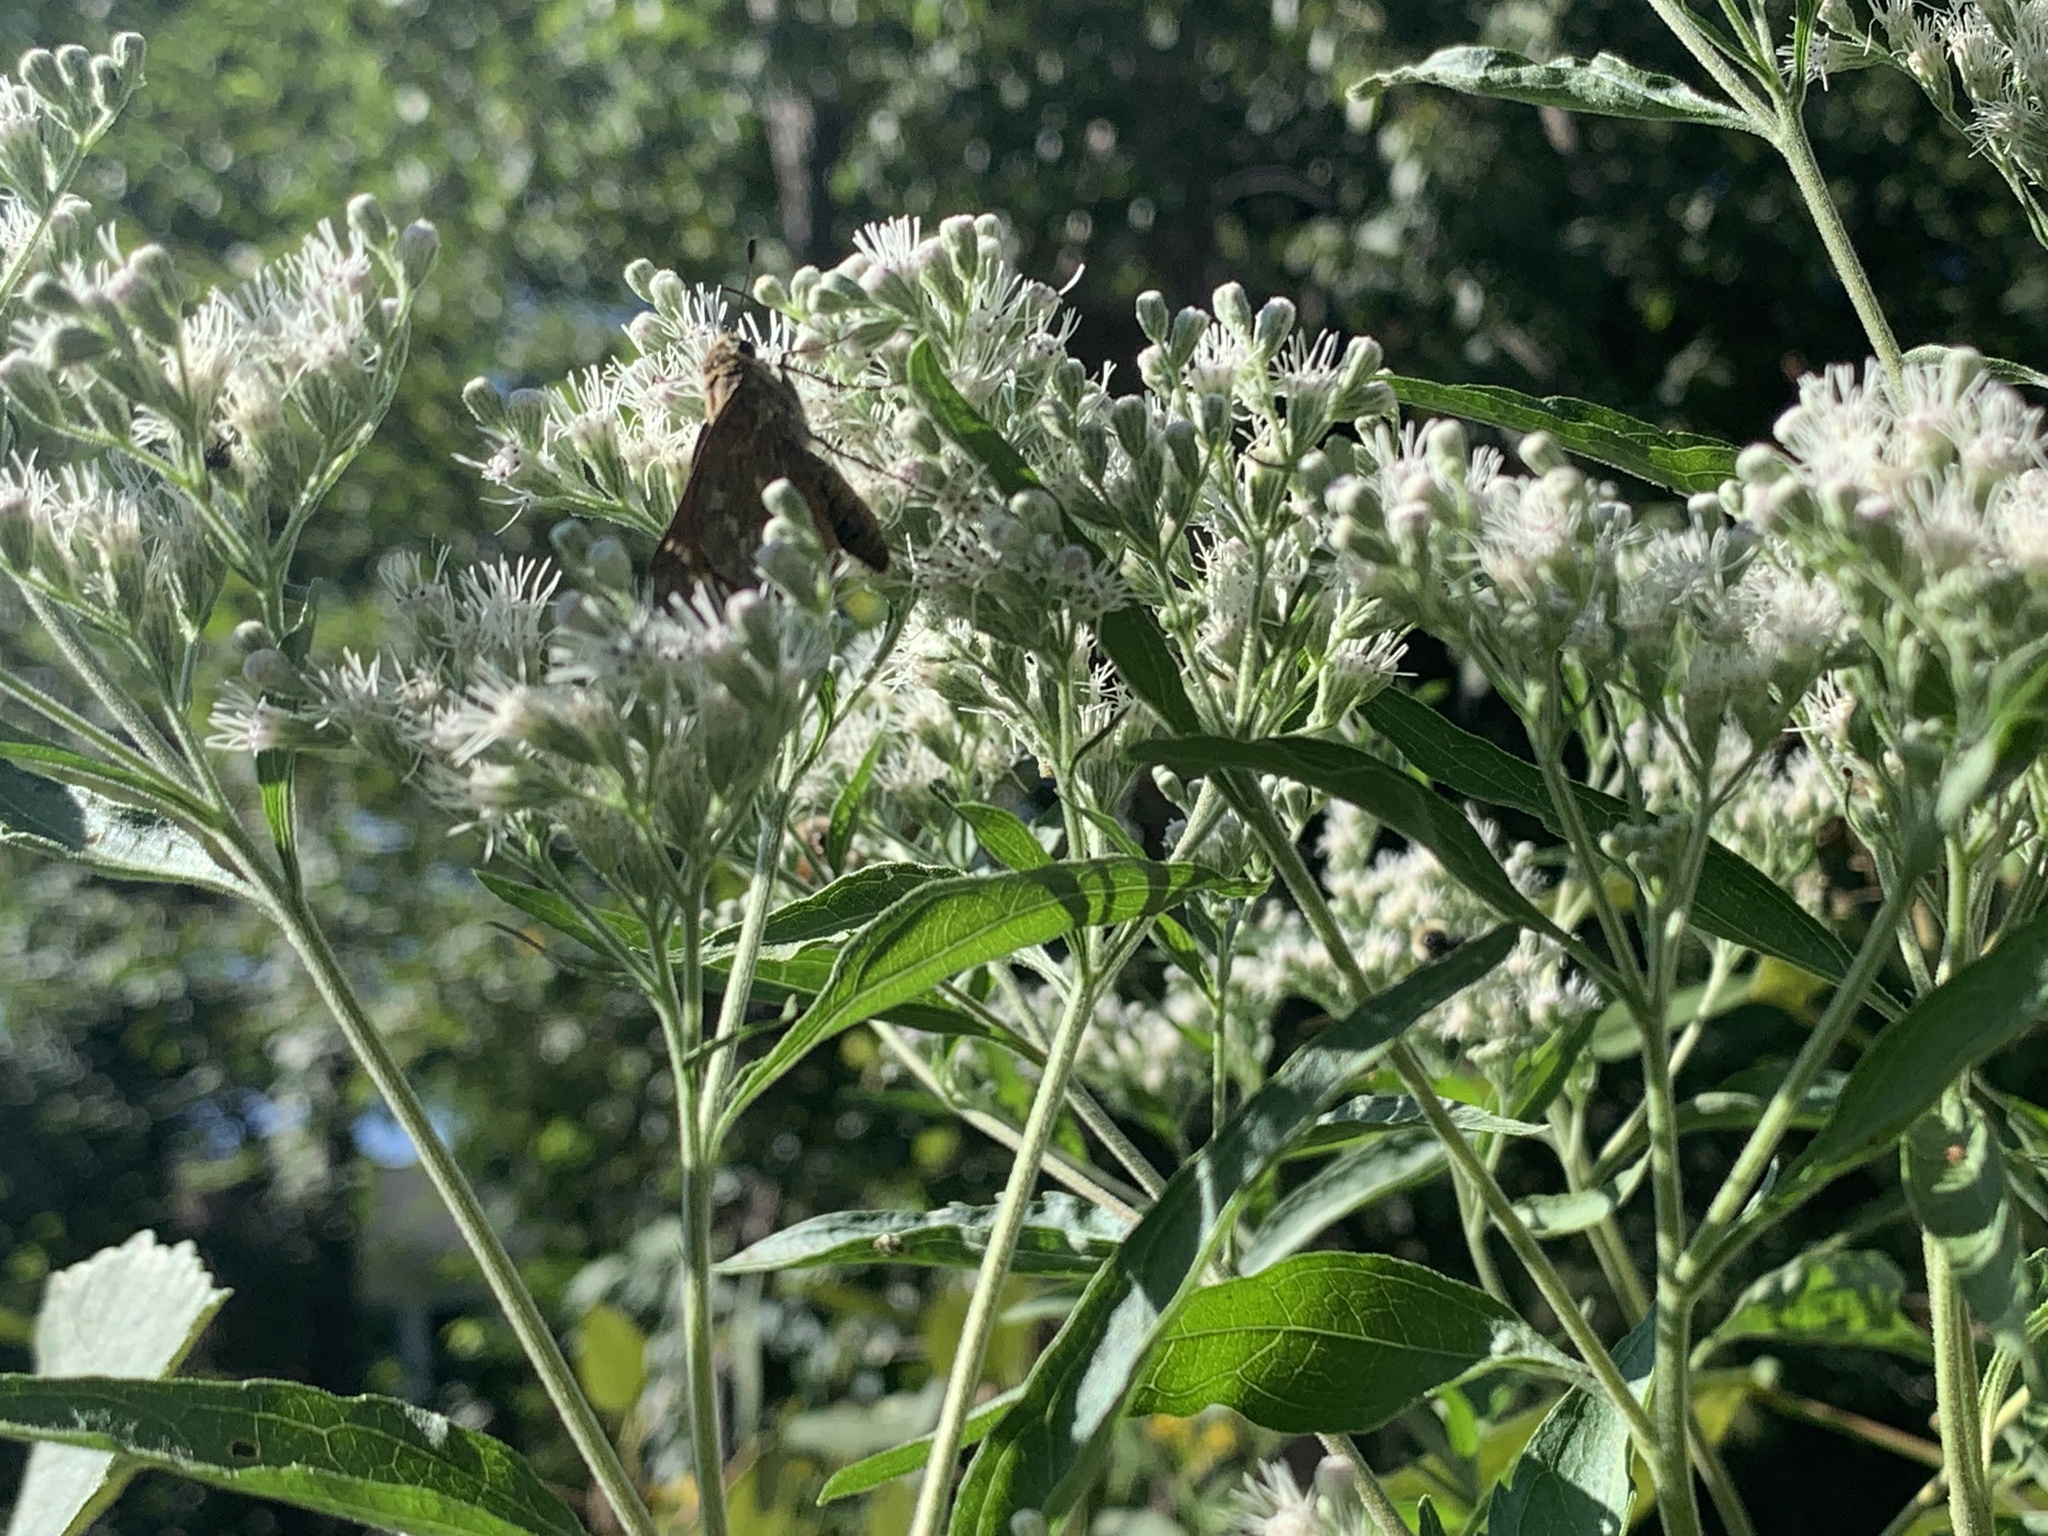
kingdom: Animalia
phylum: Arthropoda
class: Insecta
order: Lepidoptera
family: Hesperiidae
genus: Atalopedes
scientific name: Atalopedes
